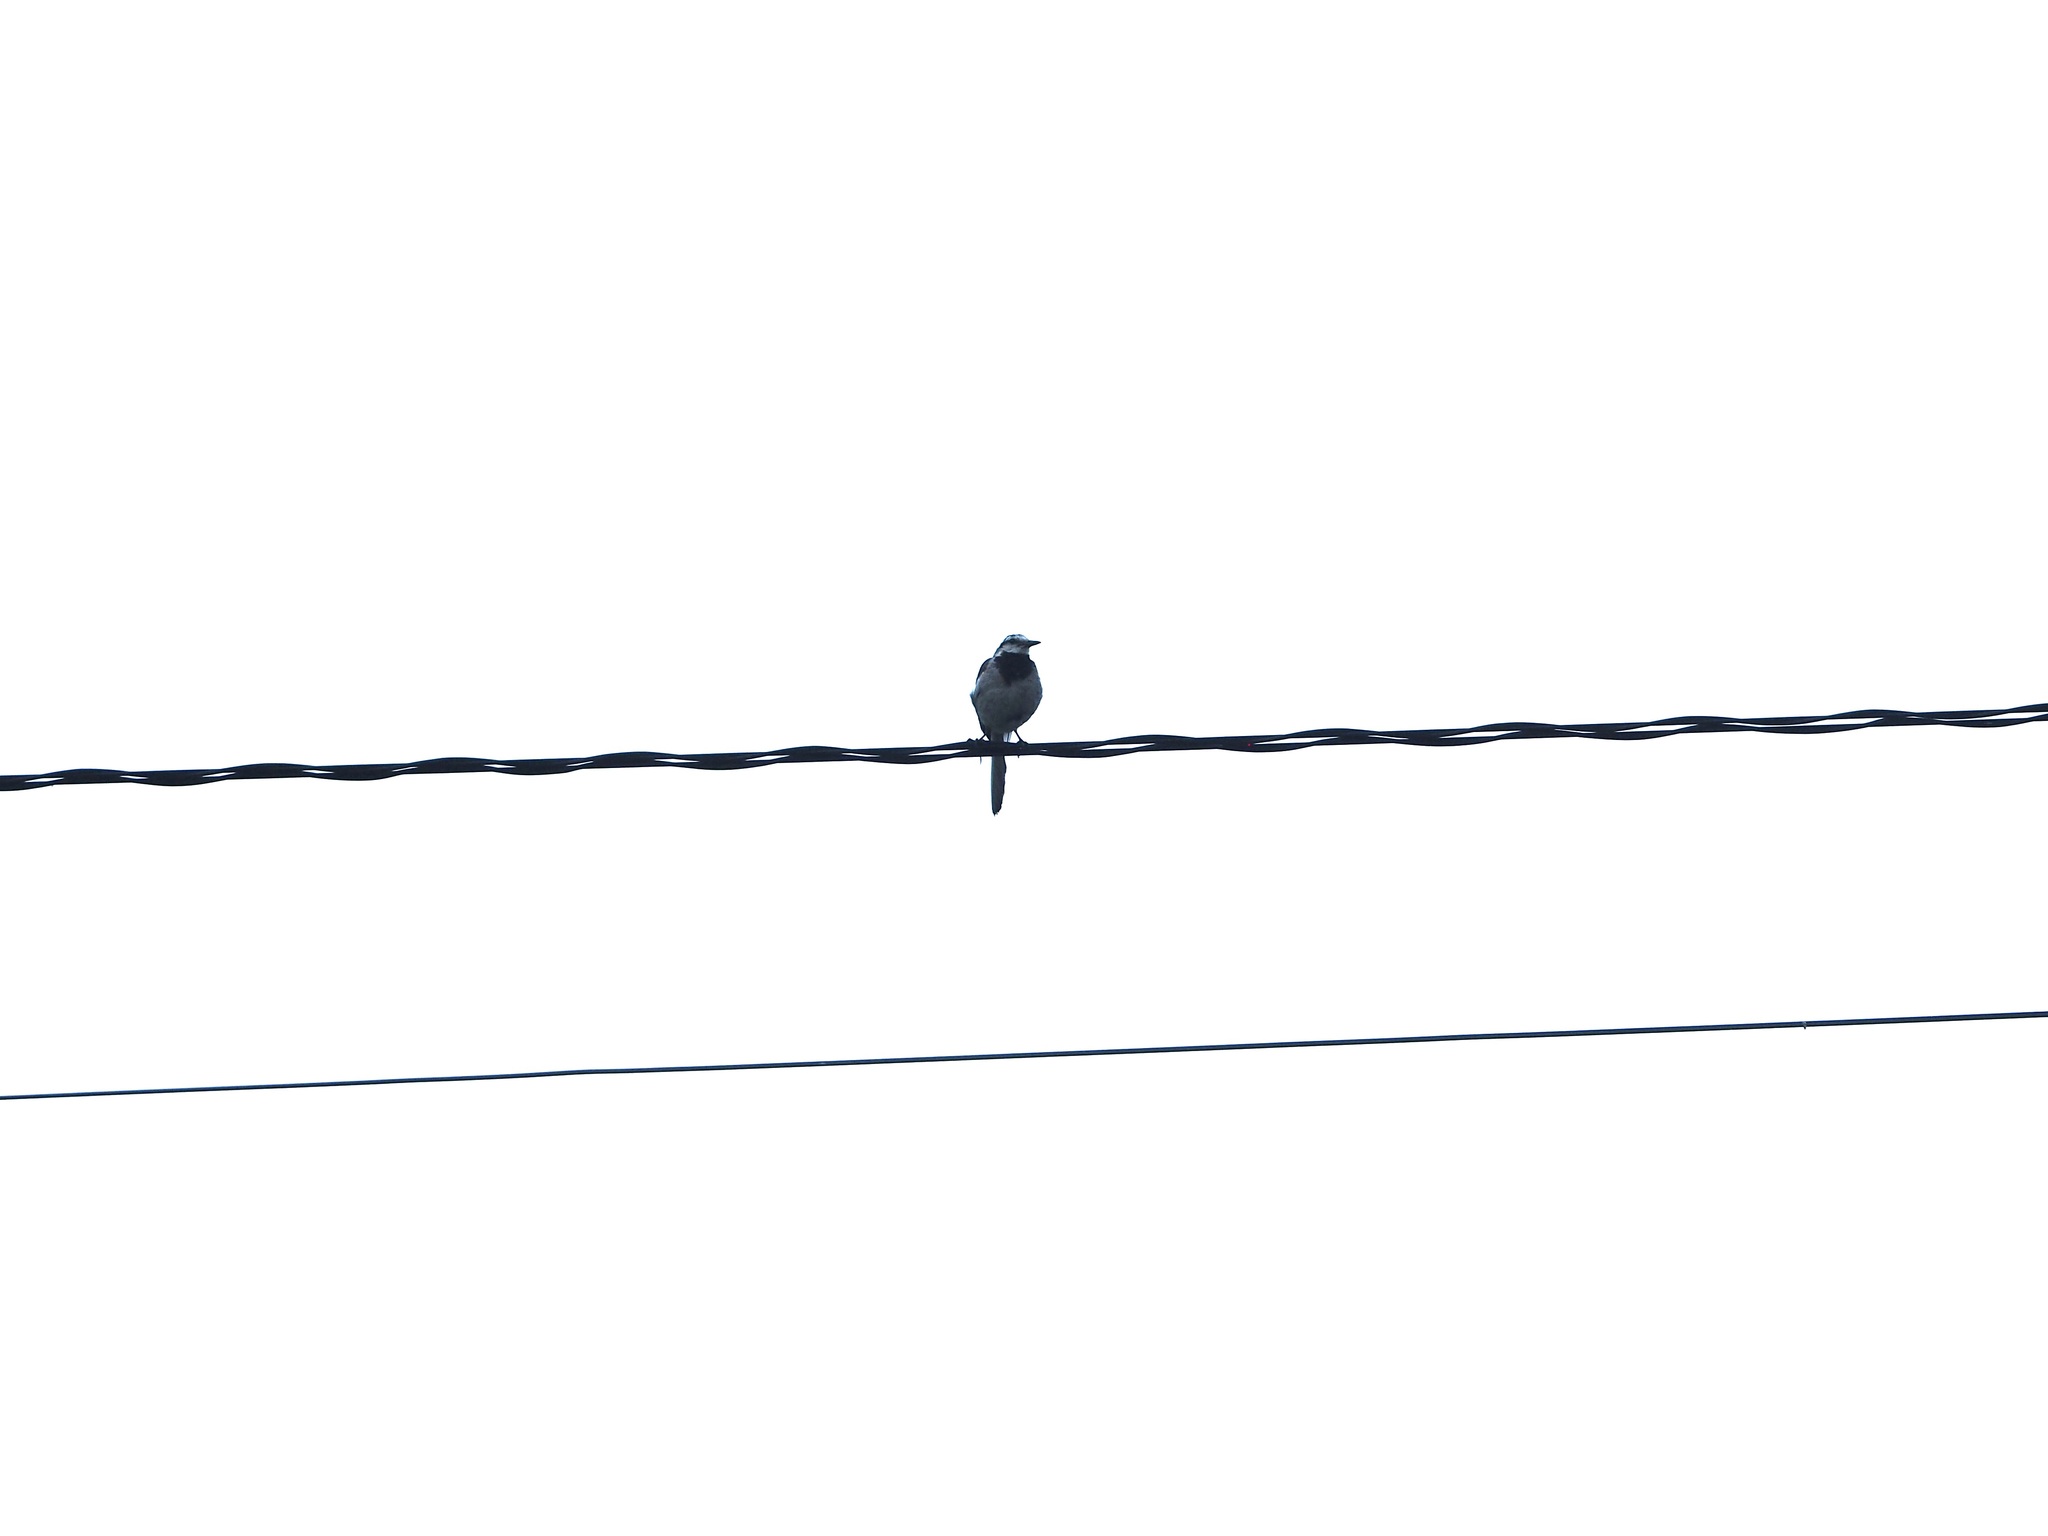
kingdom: Animalia
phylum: Chordata
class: Aves
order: Passeriformes
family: Motacillidae
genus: Motacilla
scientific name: Motacilla alba
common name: White wagtail
